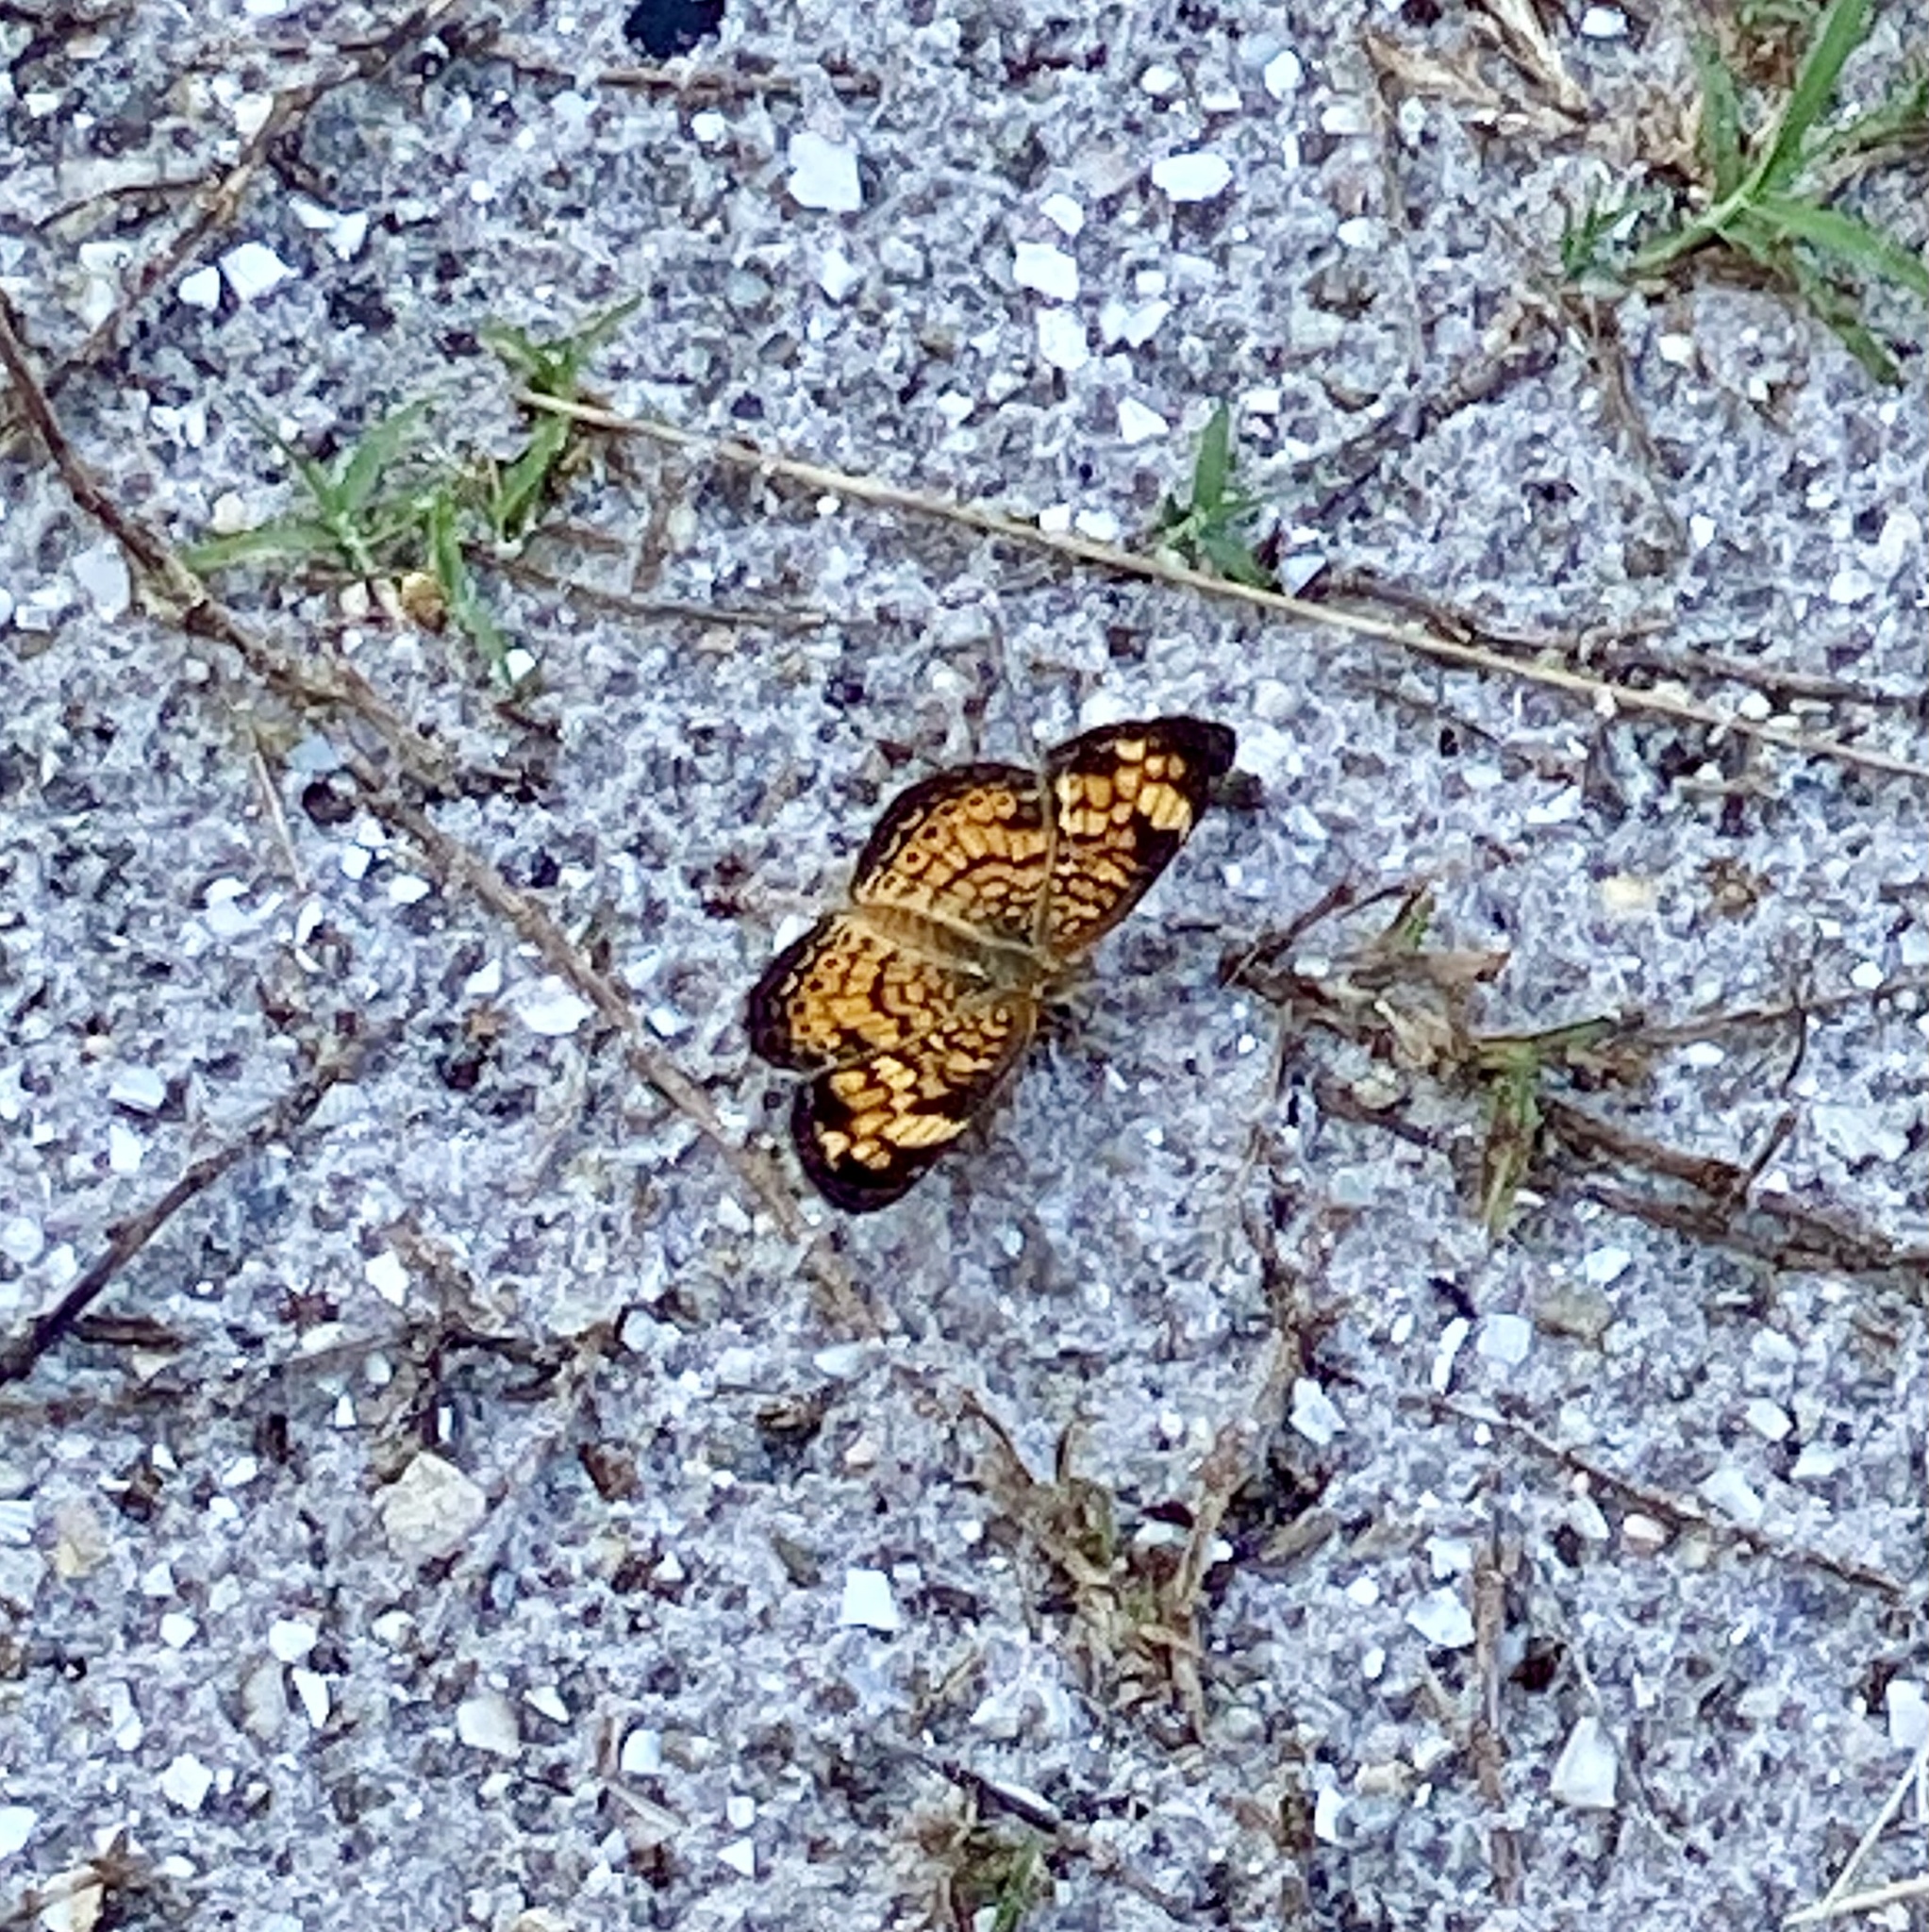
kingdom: Animalia
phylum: Arthropoda
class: Insecta
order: Lepidoptera
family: Nymphalidae
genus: Phyciodes
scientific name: Phyciodes tharos
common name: Pearl crescent
